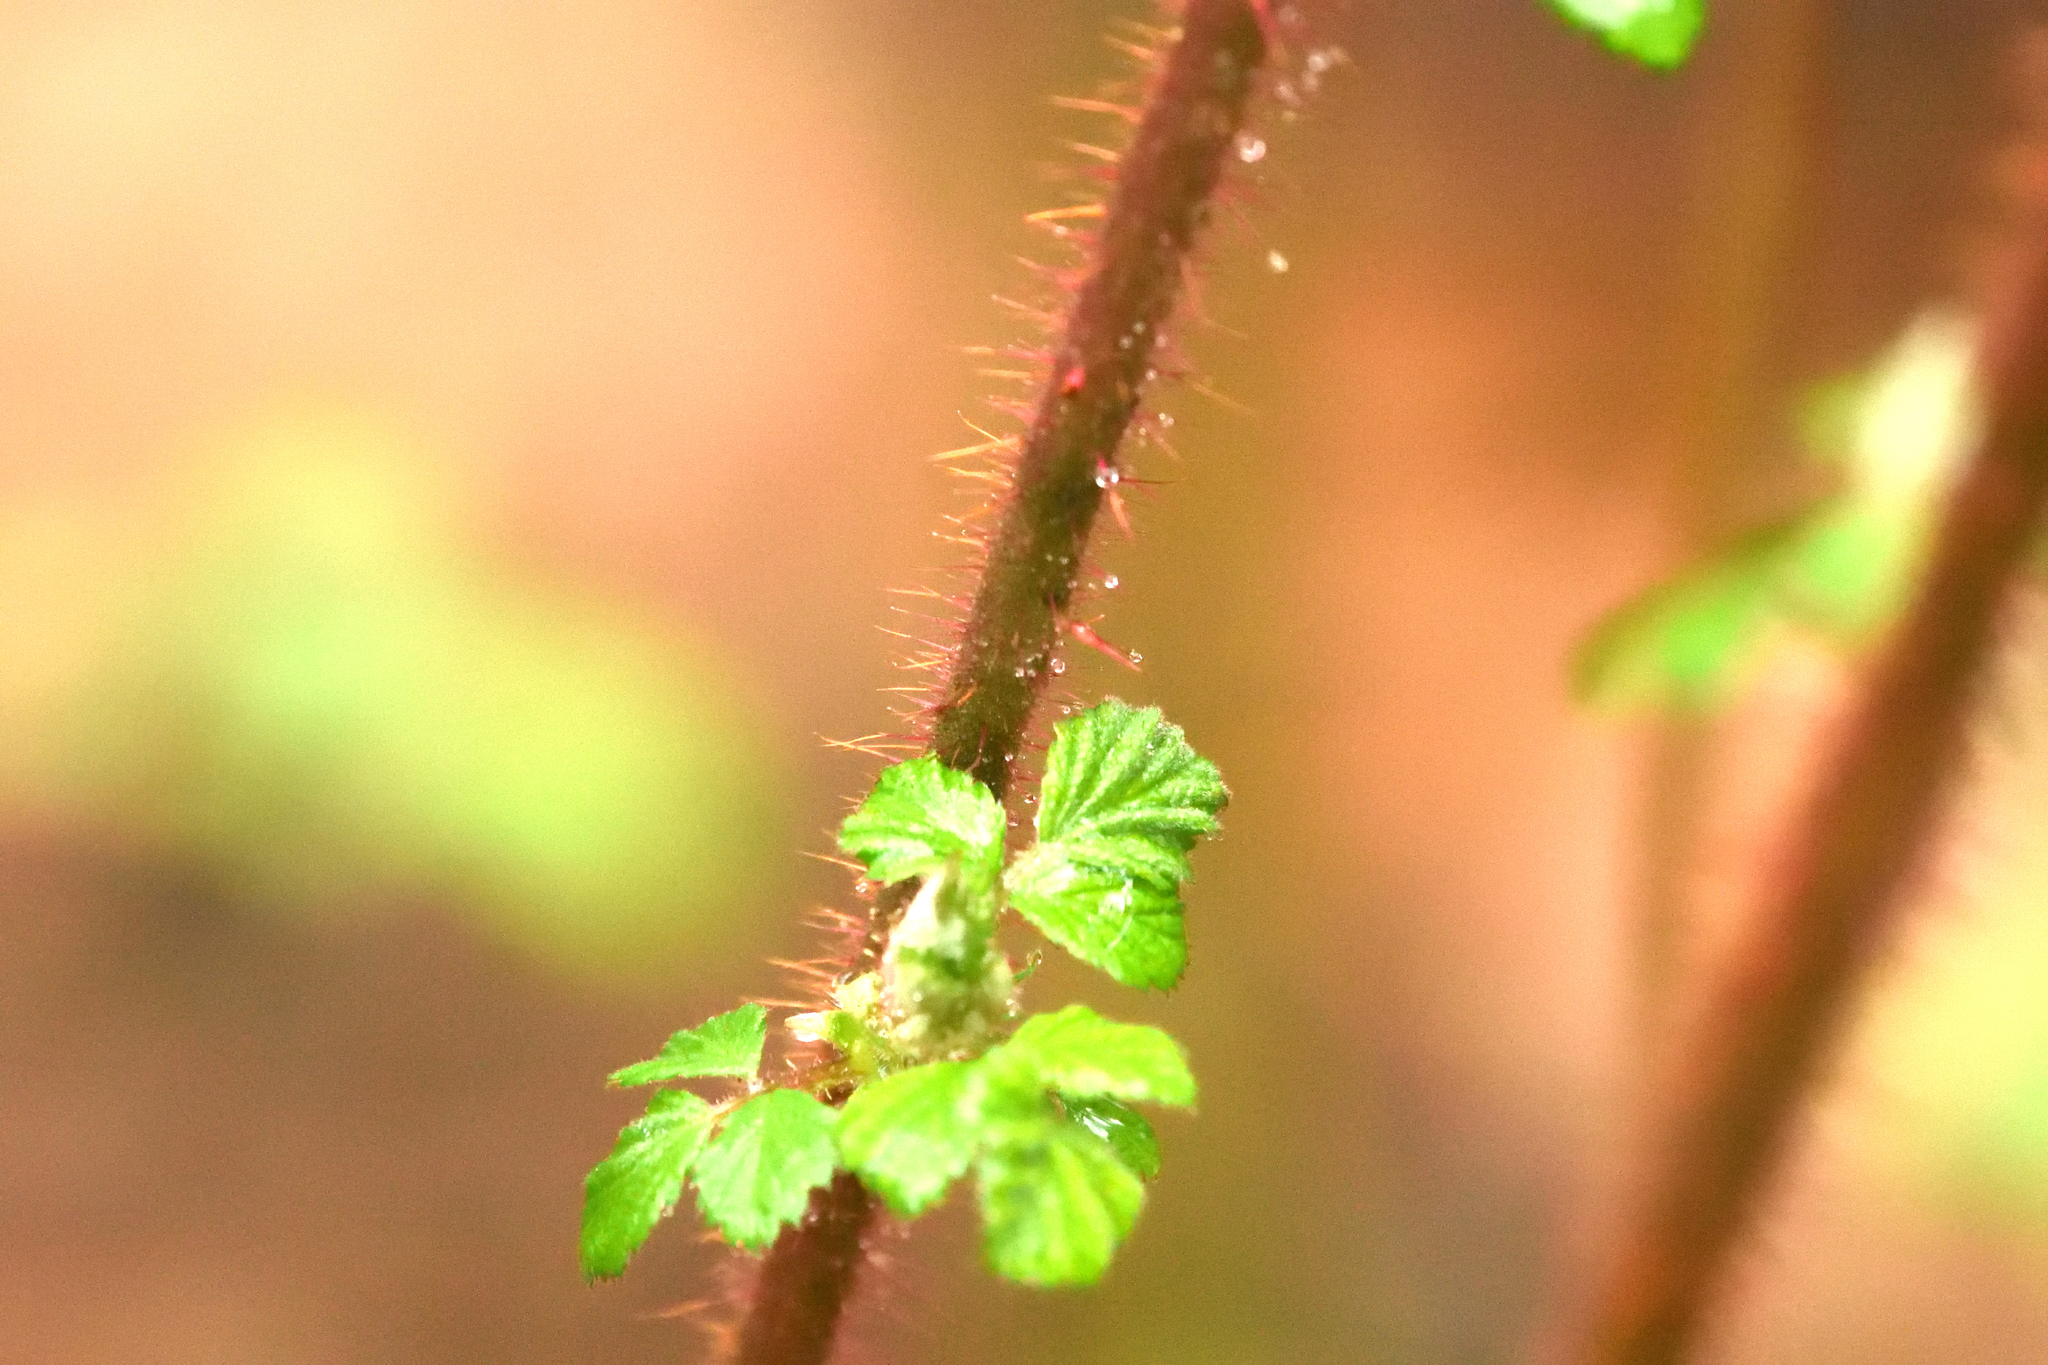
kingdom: Plantae
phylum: Tracheophyta
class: Magnoliopsida
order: Rosales
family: Rosaceae
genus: Rubus
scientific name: Rubus phoenicolasius
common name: Japanese wineberry
